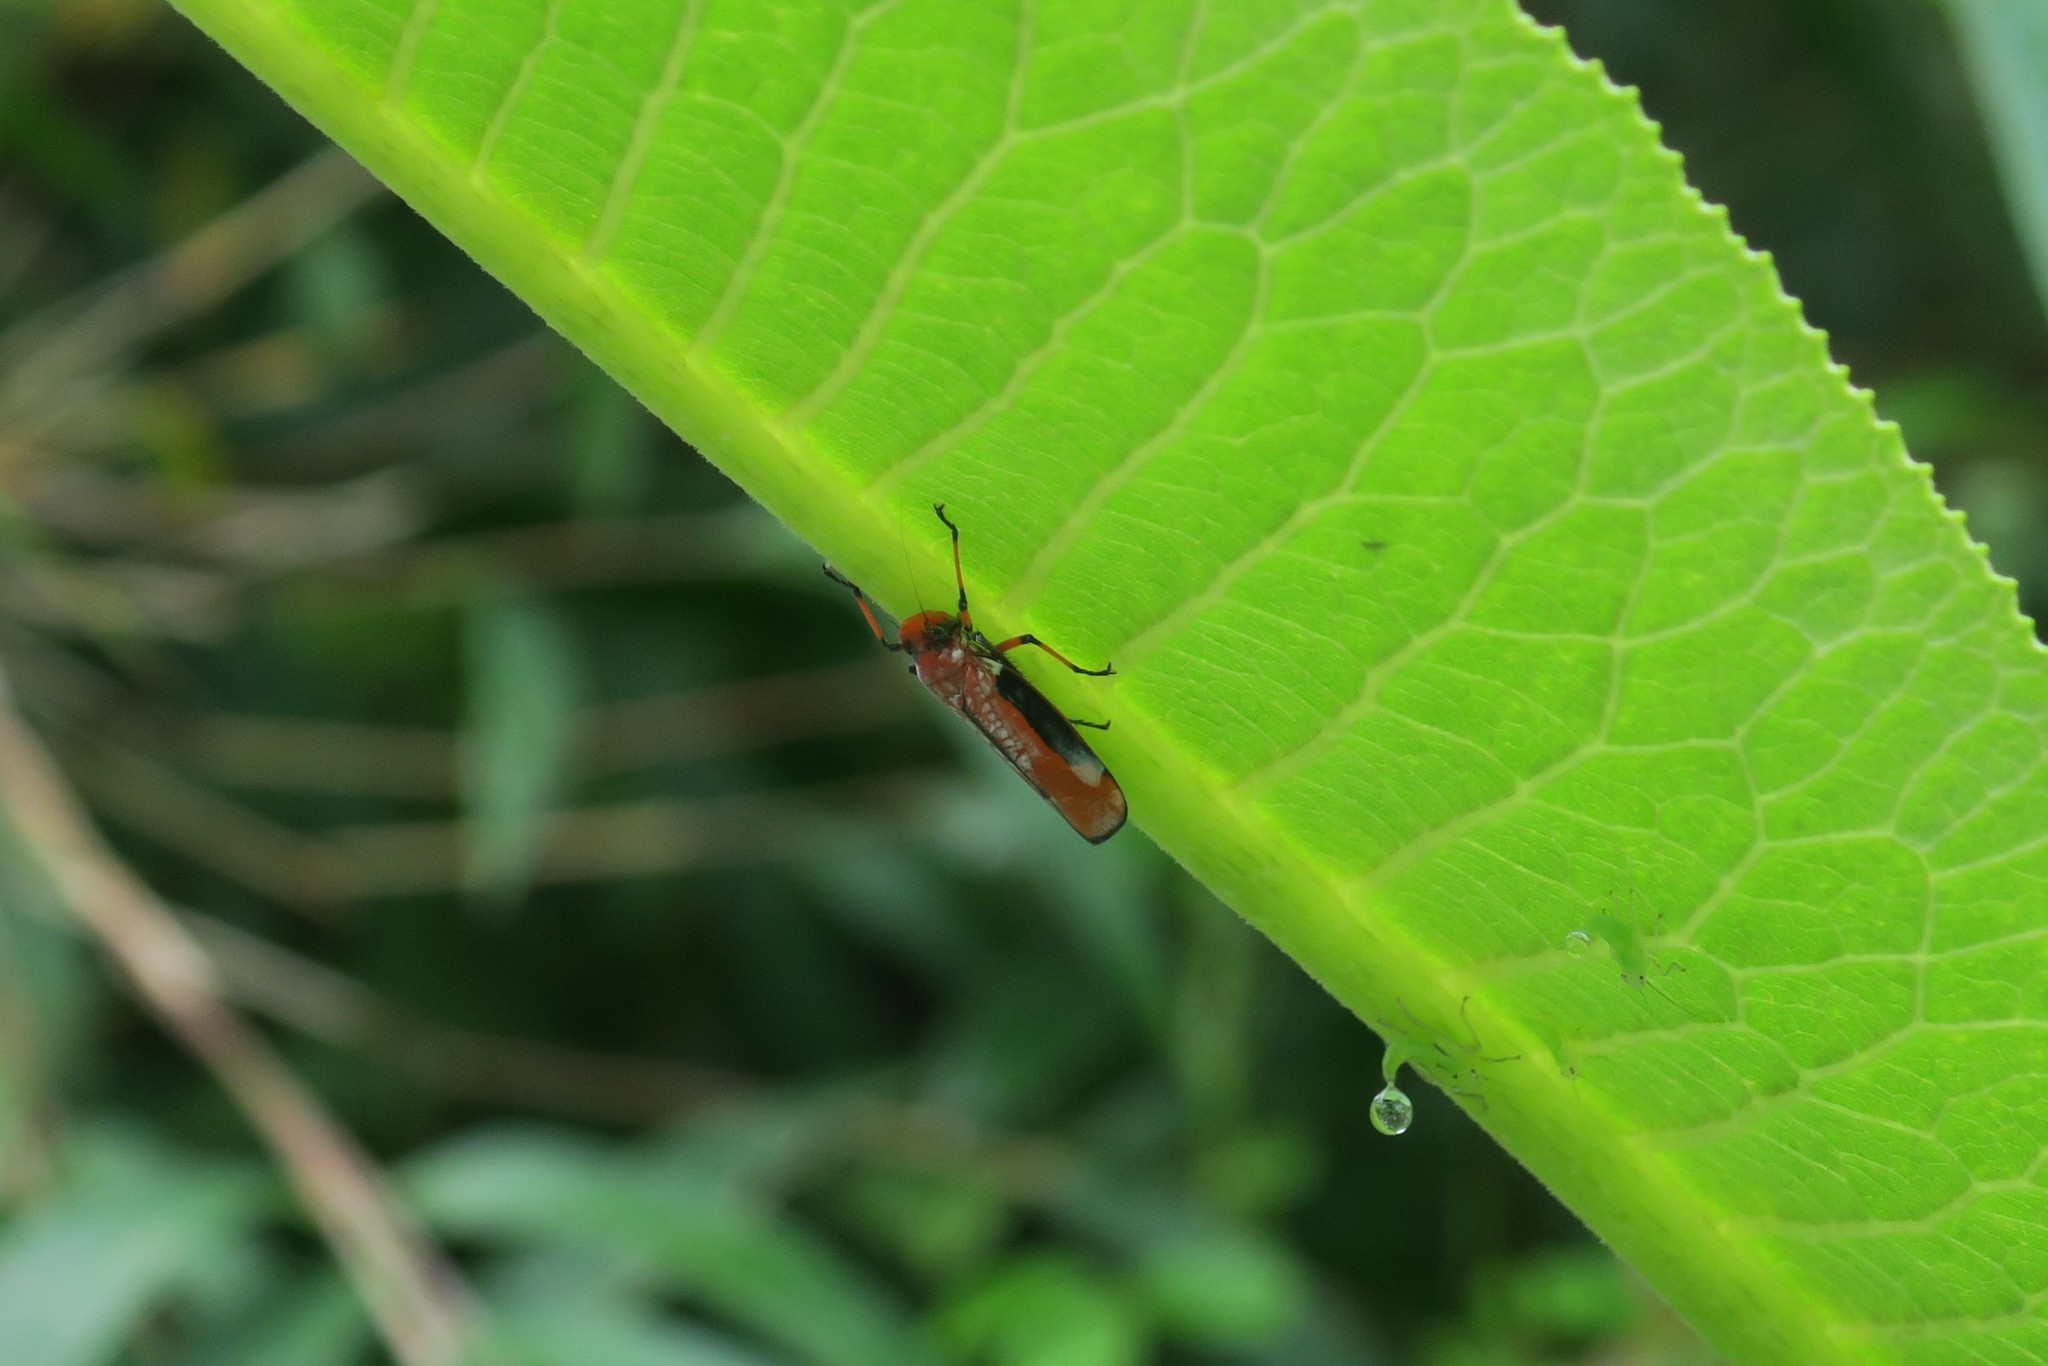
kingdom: Animalia
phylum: Arthropoda
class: Insecta
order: Hemiptera
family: Cicadellidae
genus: Onega
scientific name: Onega avella
